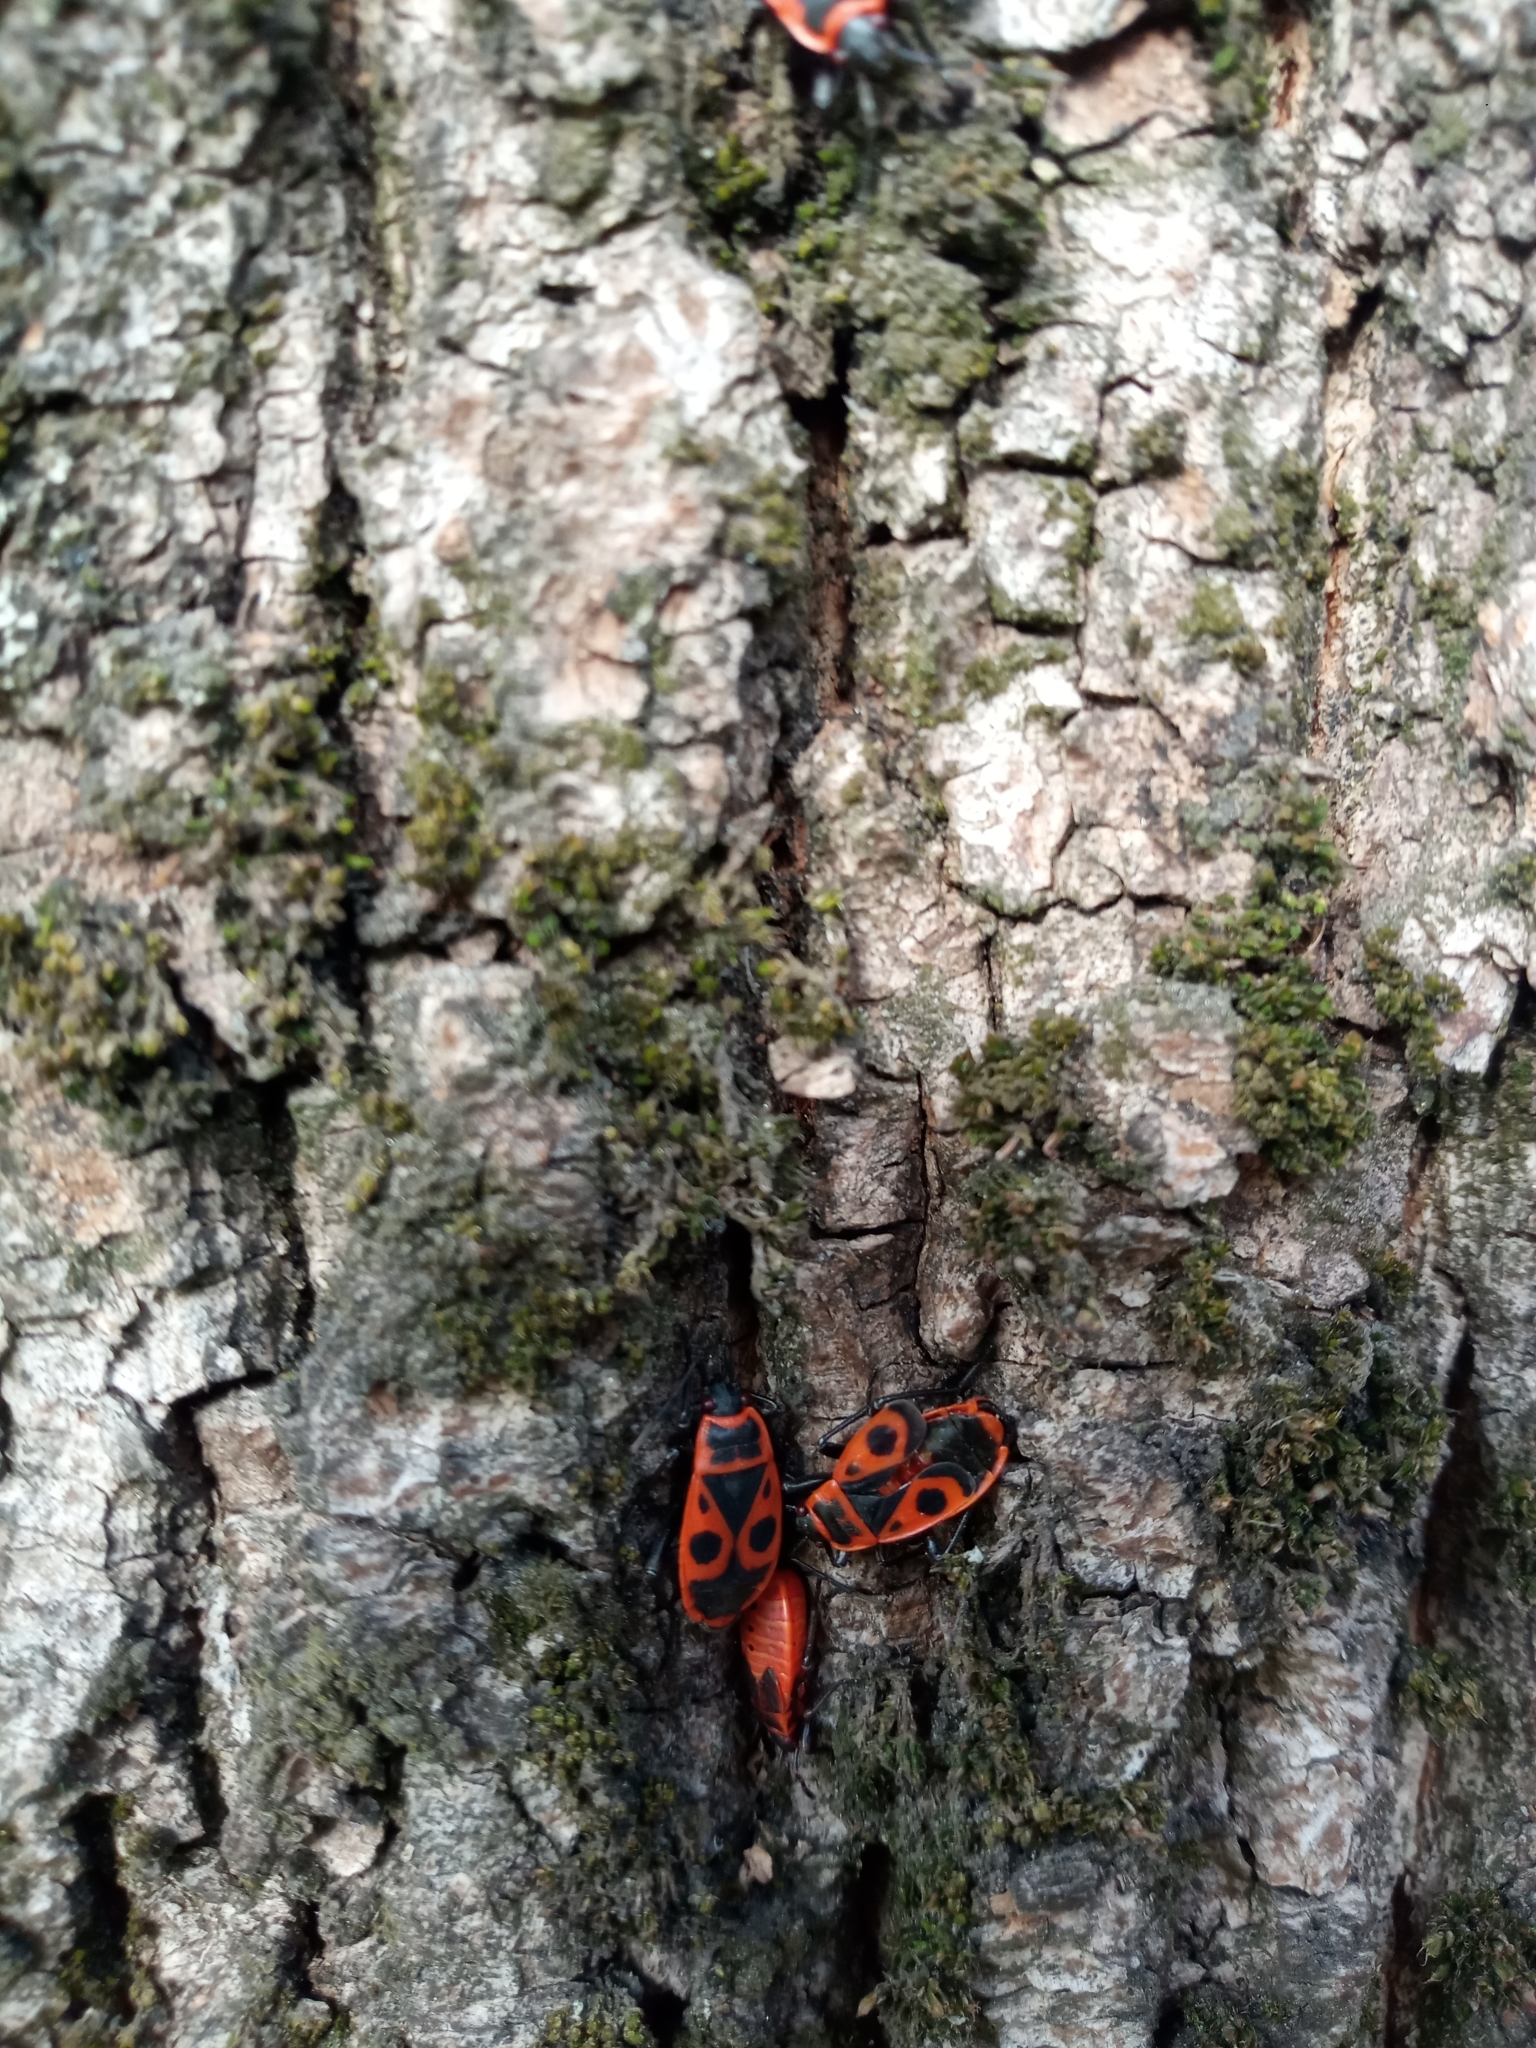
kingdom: Animalia
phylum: Arthropoda
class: Insecta
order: Hemiptera
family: Pyrrhocoridae
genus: Pyrrhocoris
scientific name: Pyrrhocoris apterus
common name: Firebug
